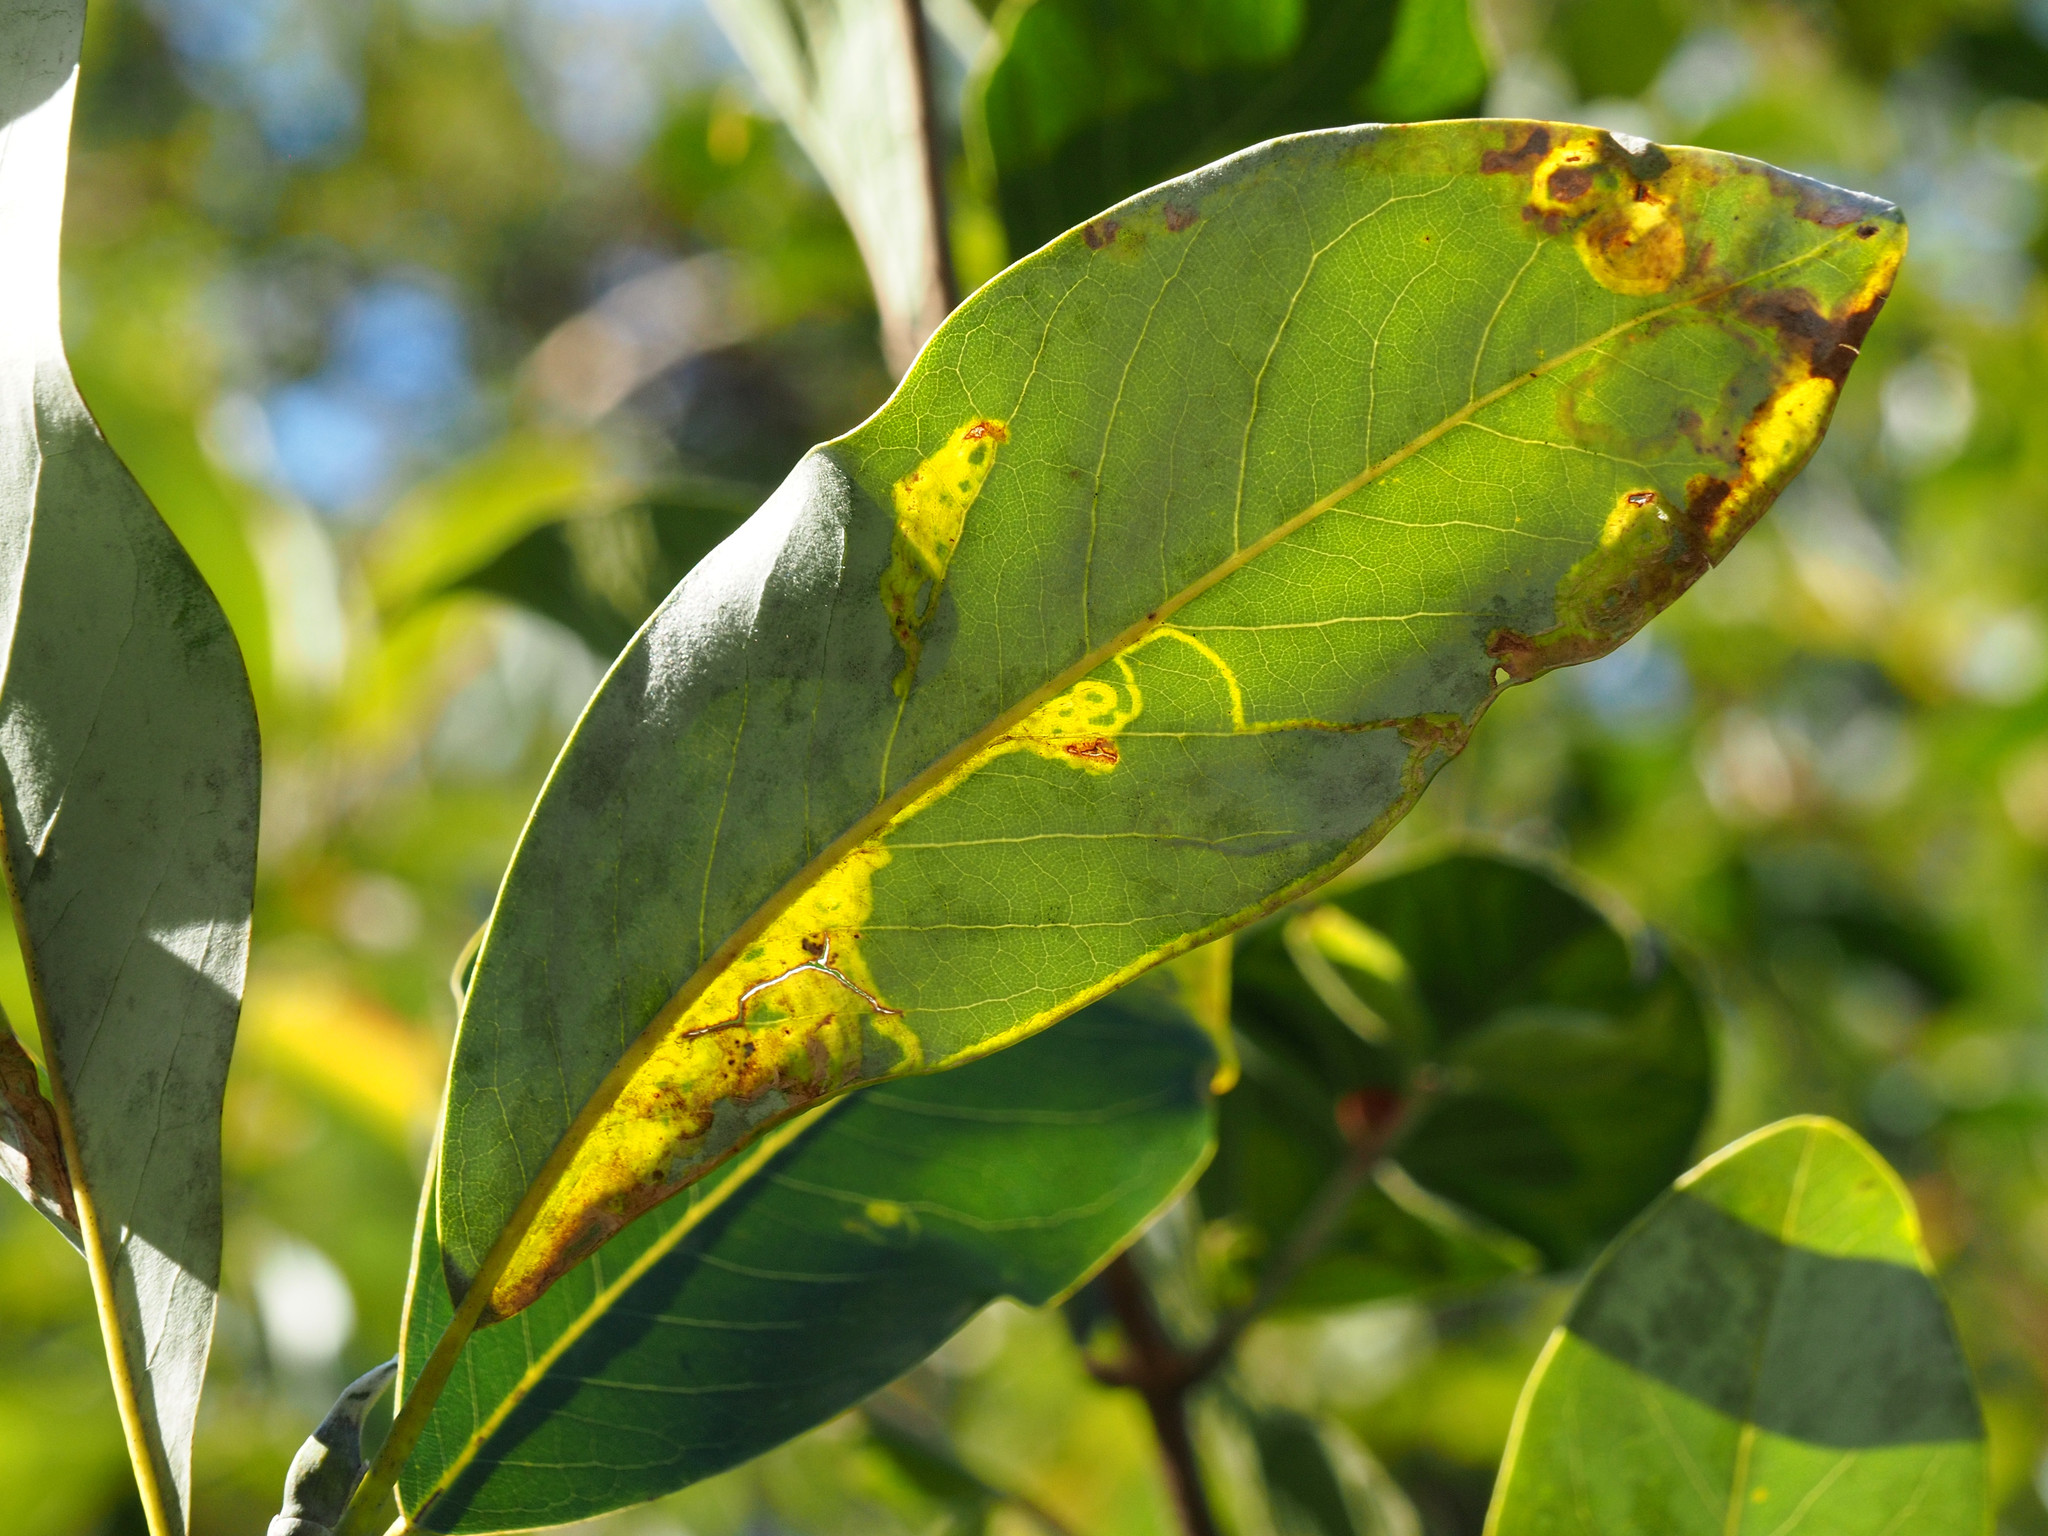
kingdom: Animalia
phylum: Arthropoda
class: Insecta
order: Lepidoptera
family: Gracillariidae
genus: Phyllocnistis
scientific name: Phyllocnistis liriodendronella
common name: Tulip tree leaf miner
